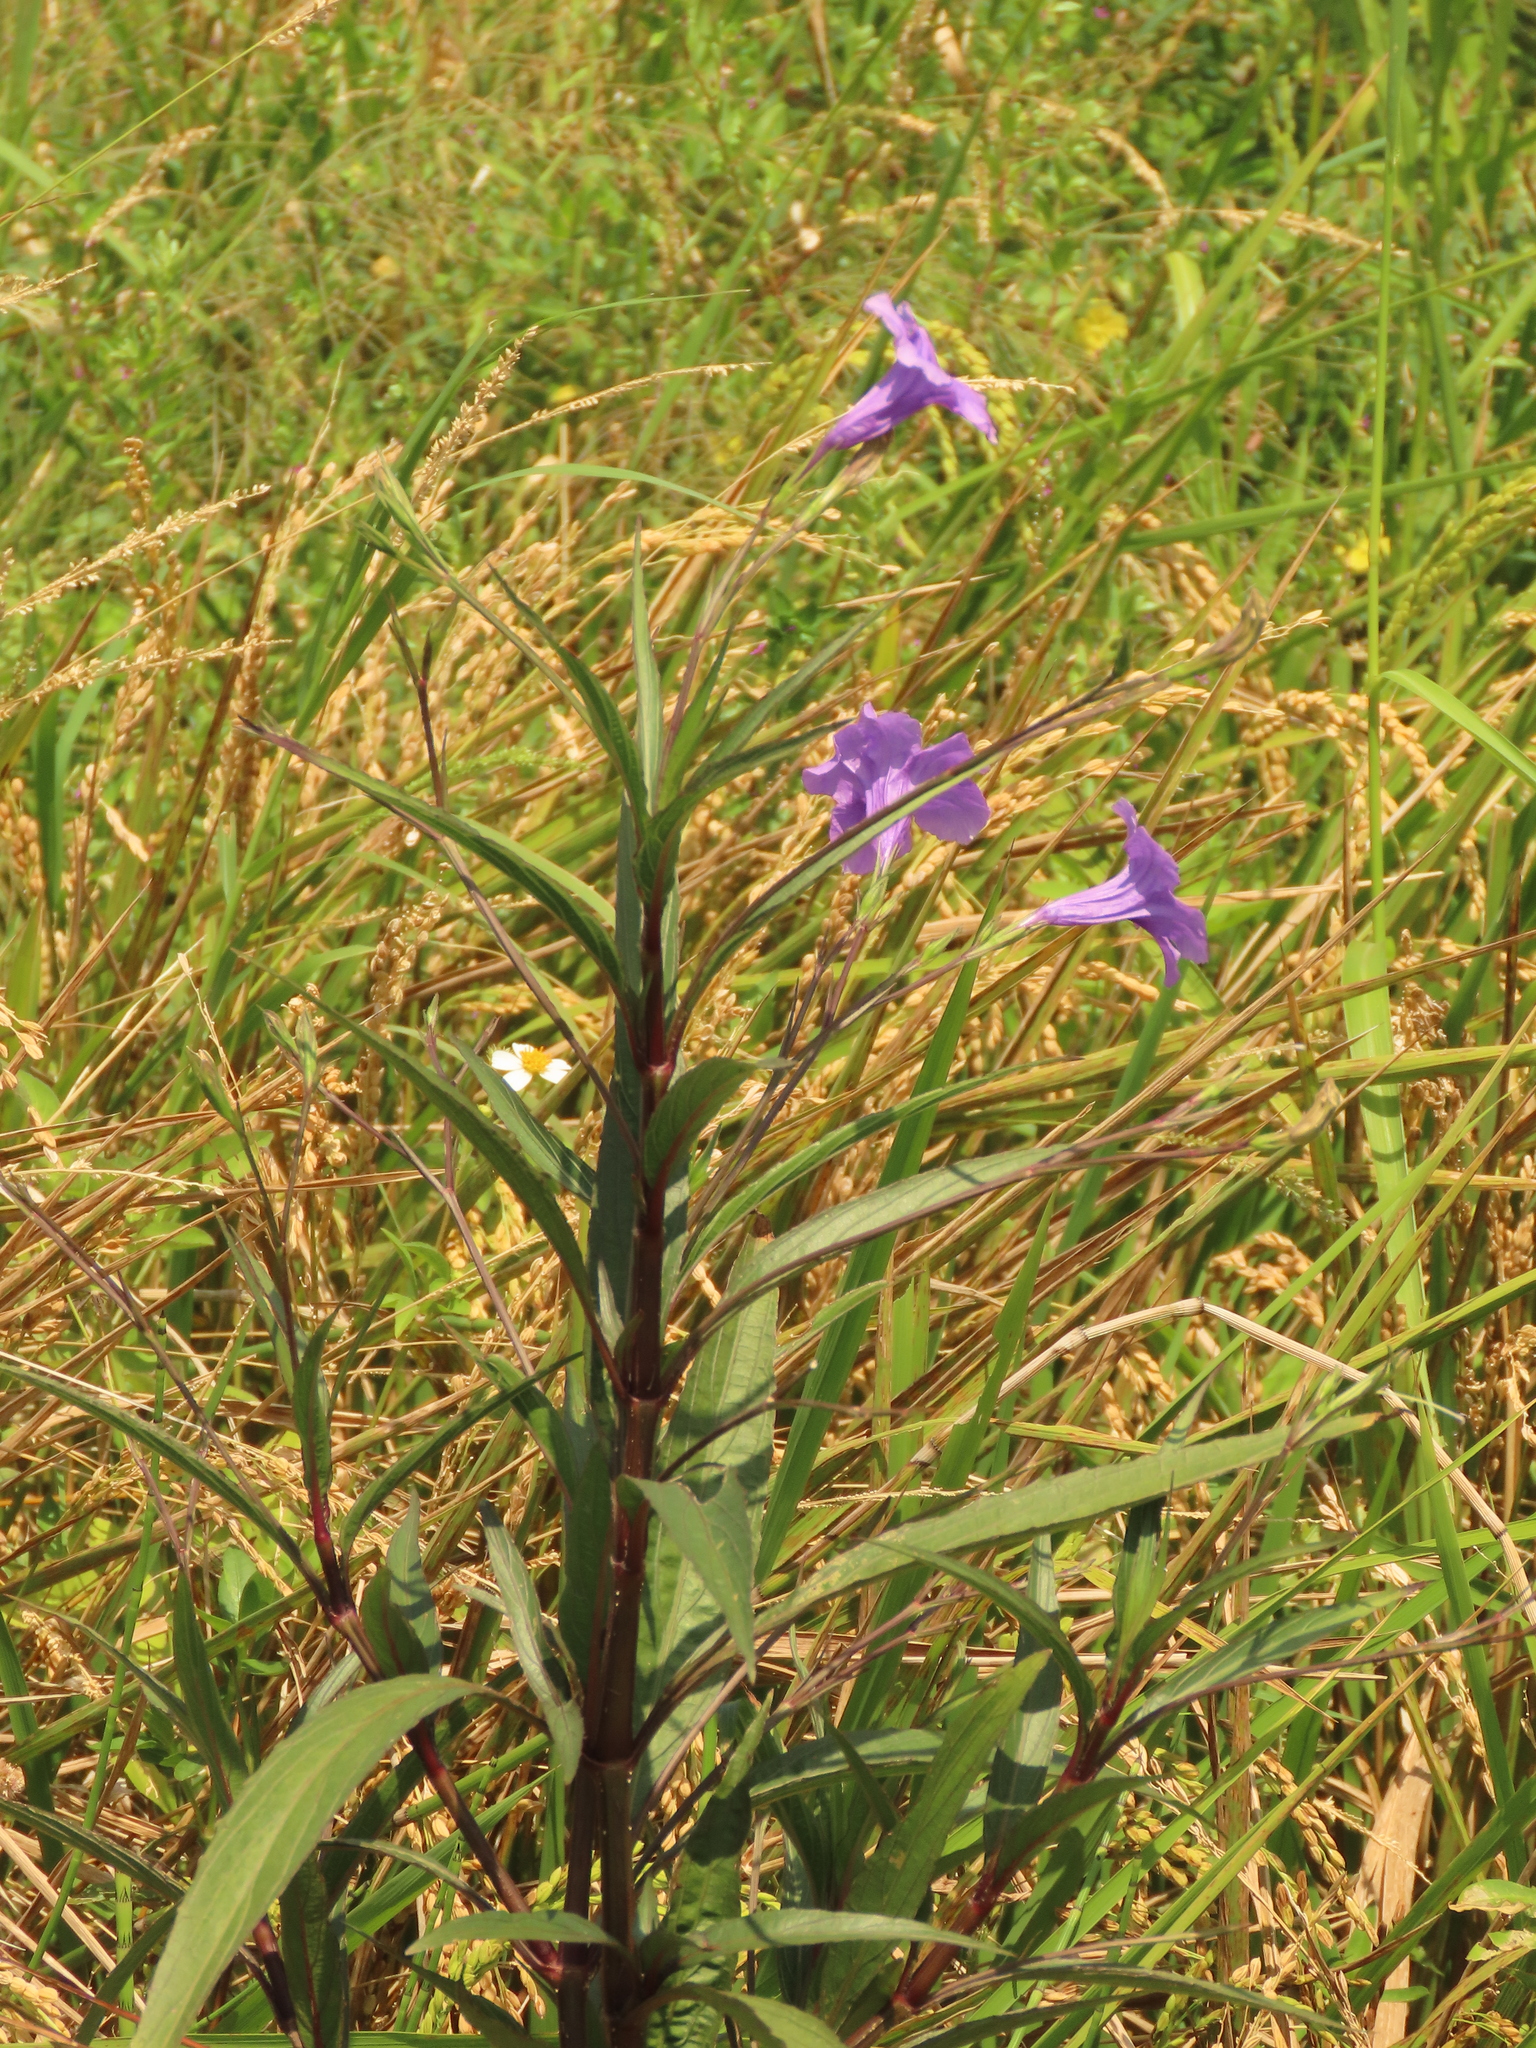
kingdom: Plantae
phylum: Tracheophyta
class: Magnoliopsida
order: Lamiales
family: Acanthaceae
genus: Ruellia
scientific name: Ruellia simplex
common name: Softseed wild petunia
